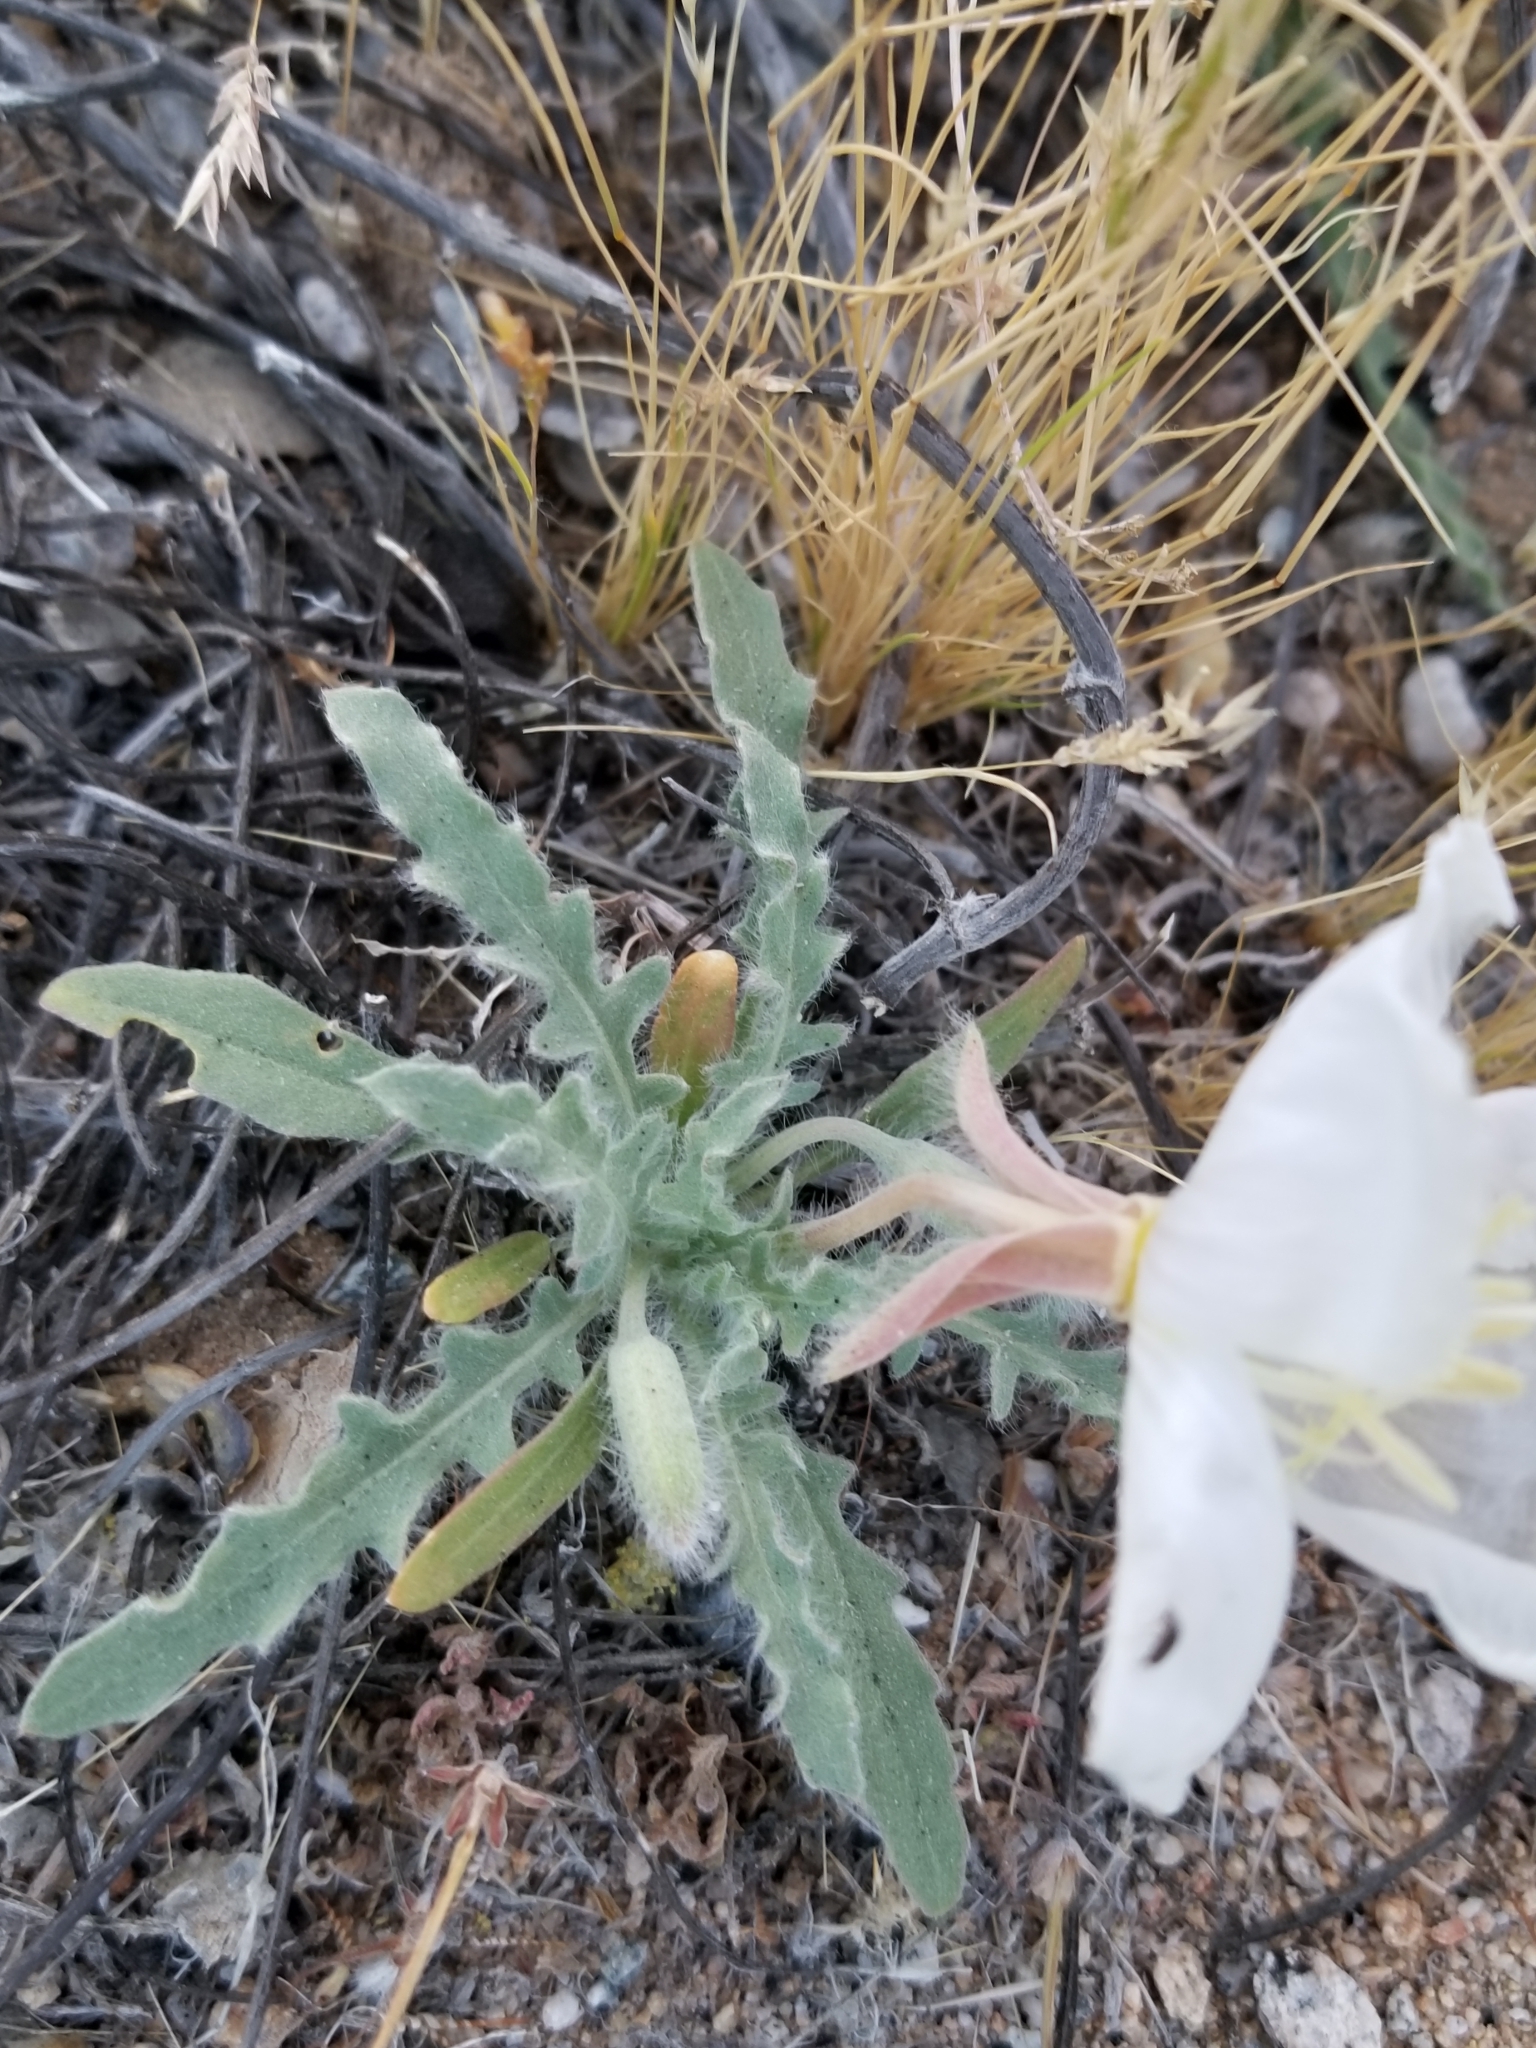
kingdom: Plantae
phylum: Tracheophyta
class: Magnoliopsida
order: Myrtales
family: Onagraceae
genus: Oenothera
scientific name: Oenothera californica
